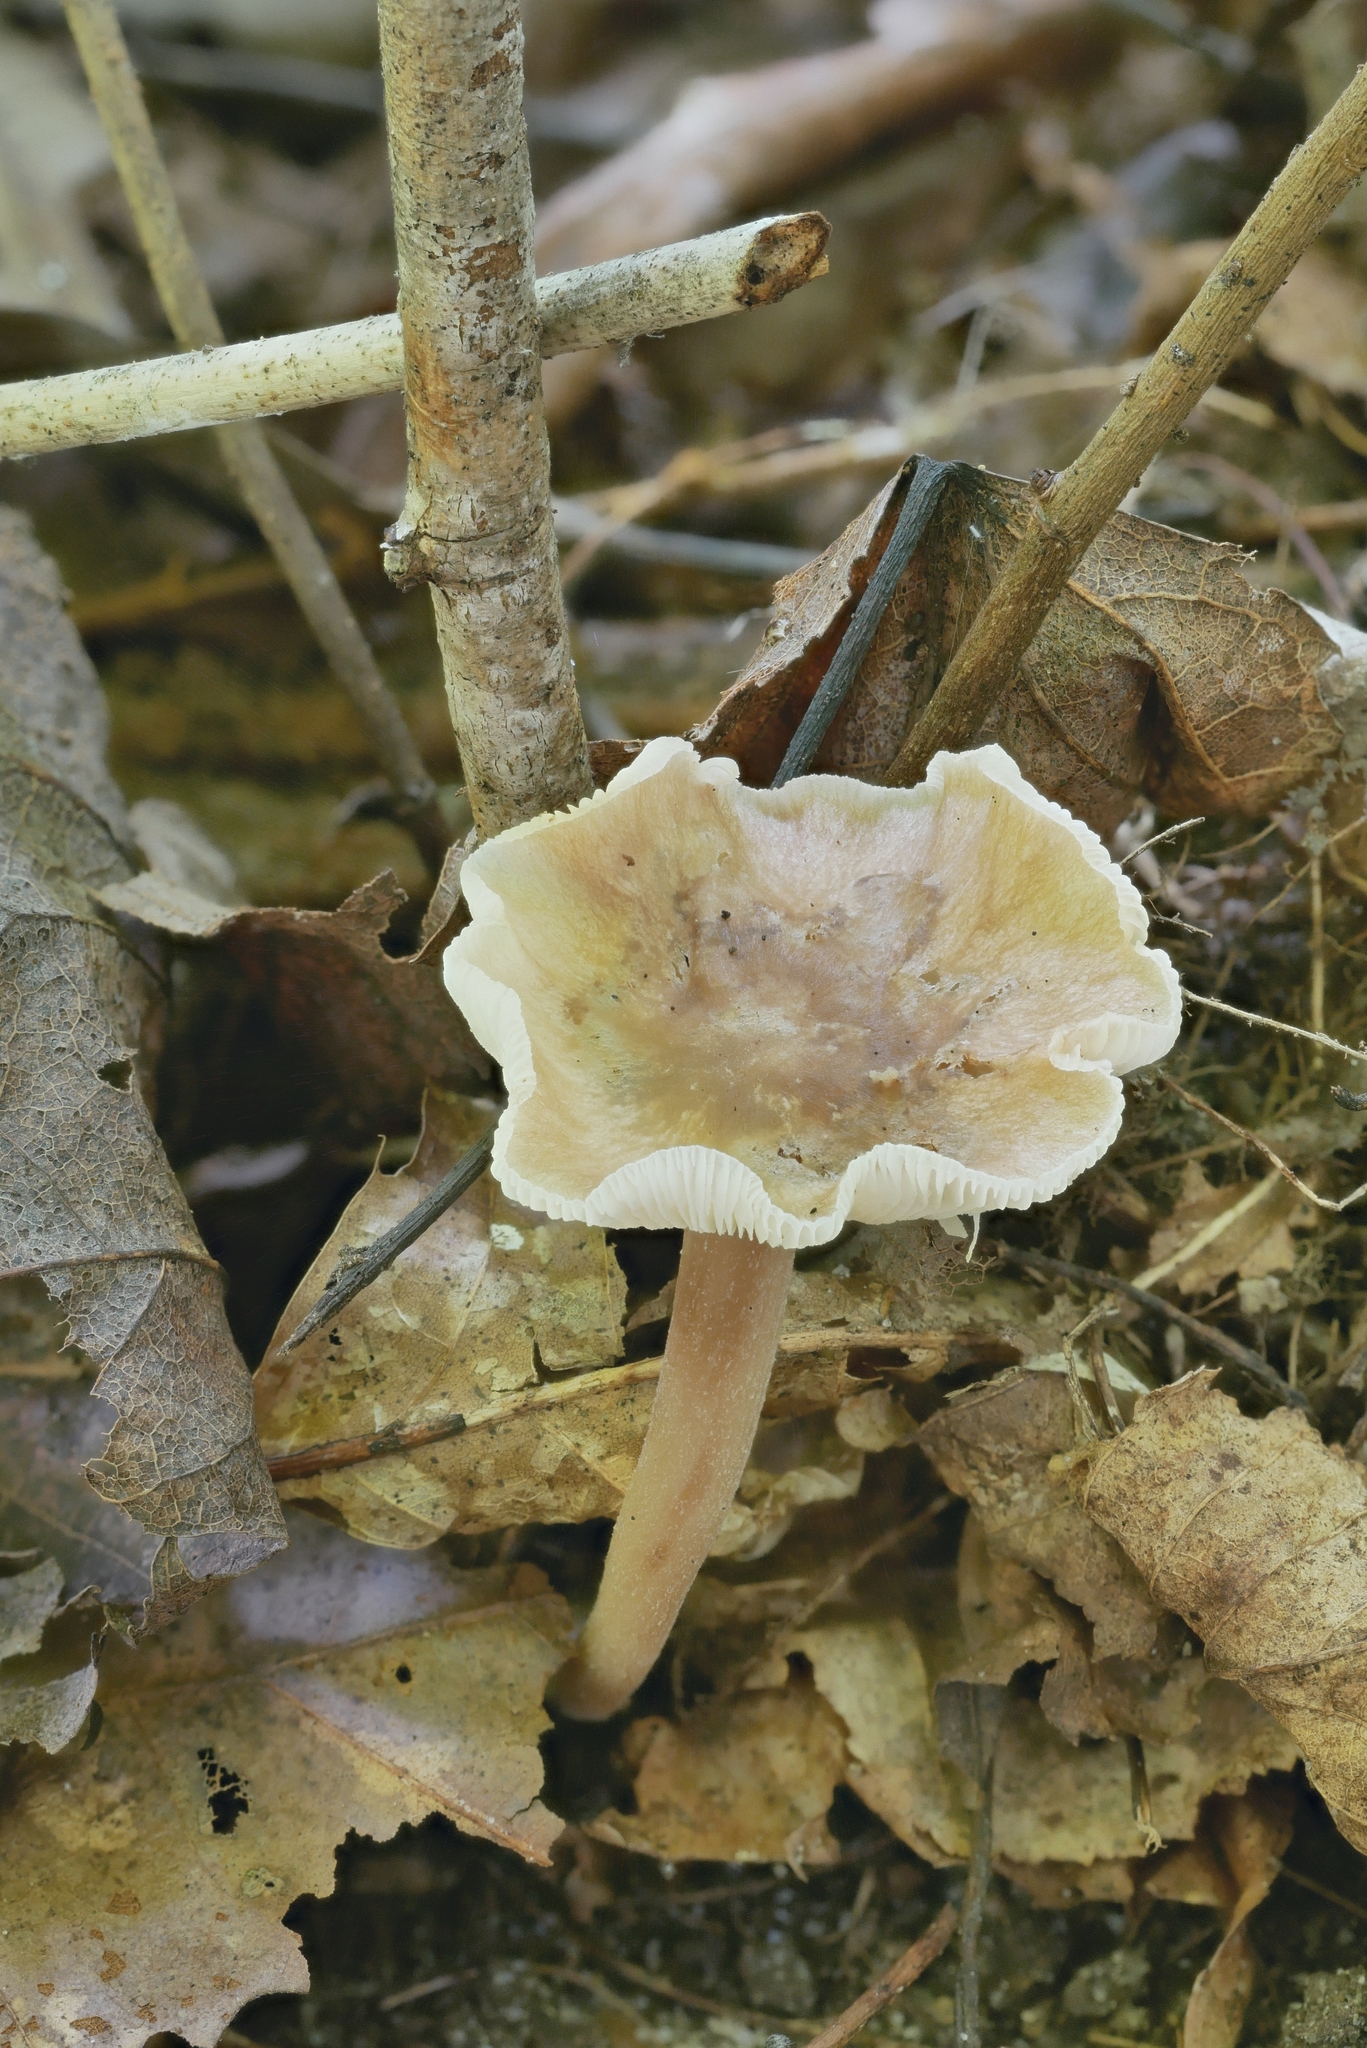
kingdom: Fungi
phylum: Basidiomycota
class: Agaricomycetes
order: Agaricales
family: Omphalotaceae
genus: Collybiopsis
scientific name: Collybiopsis luxurians
